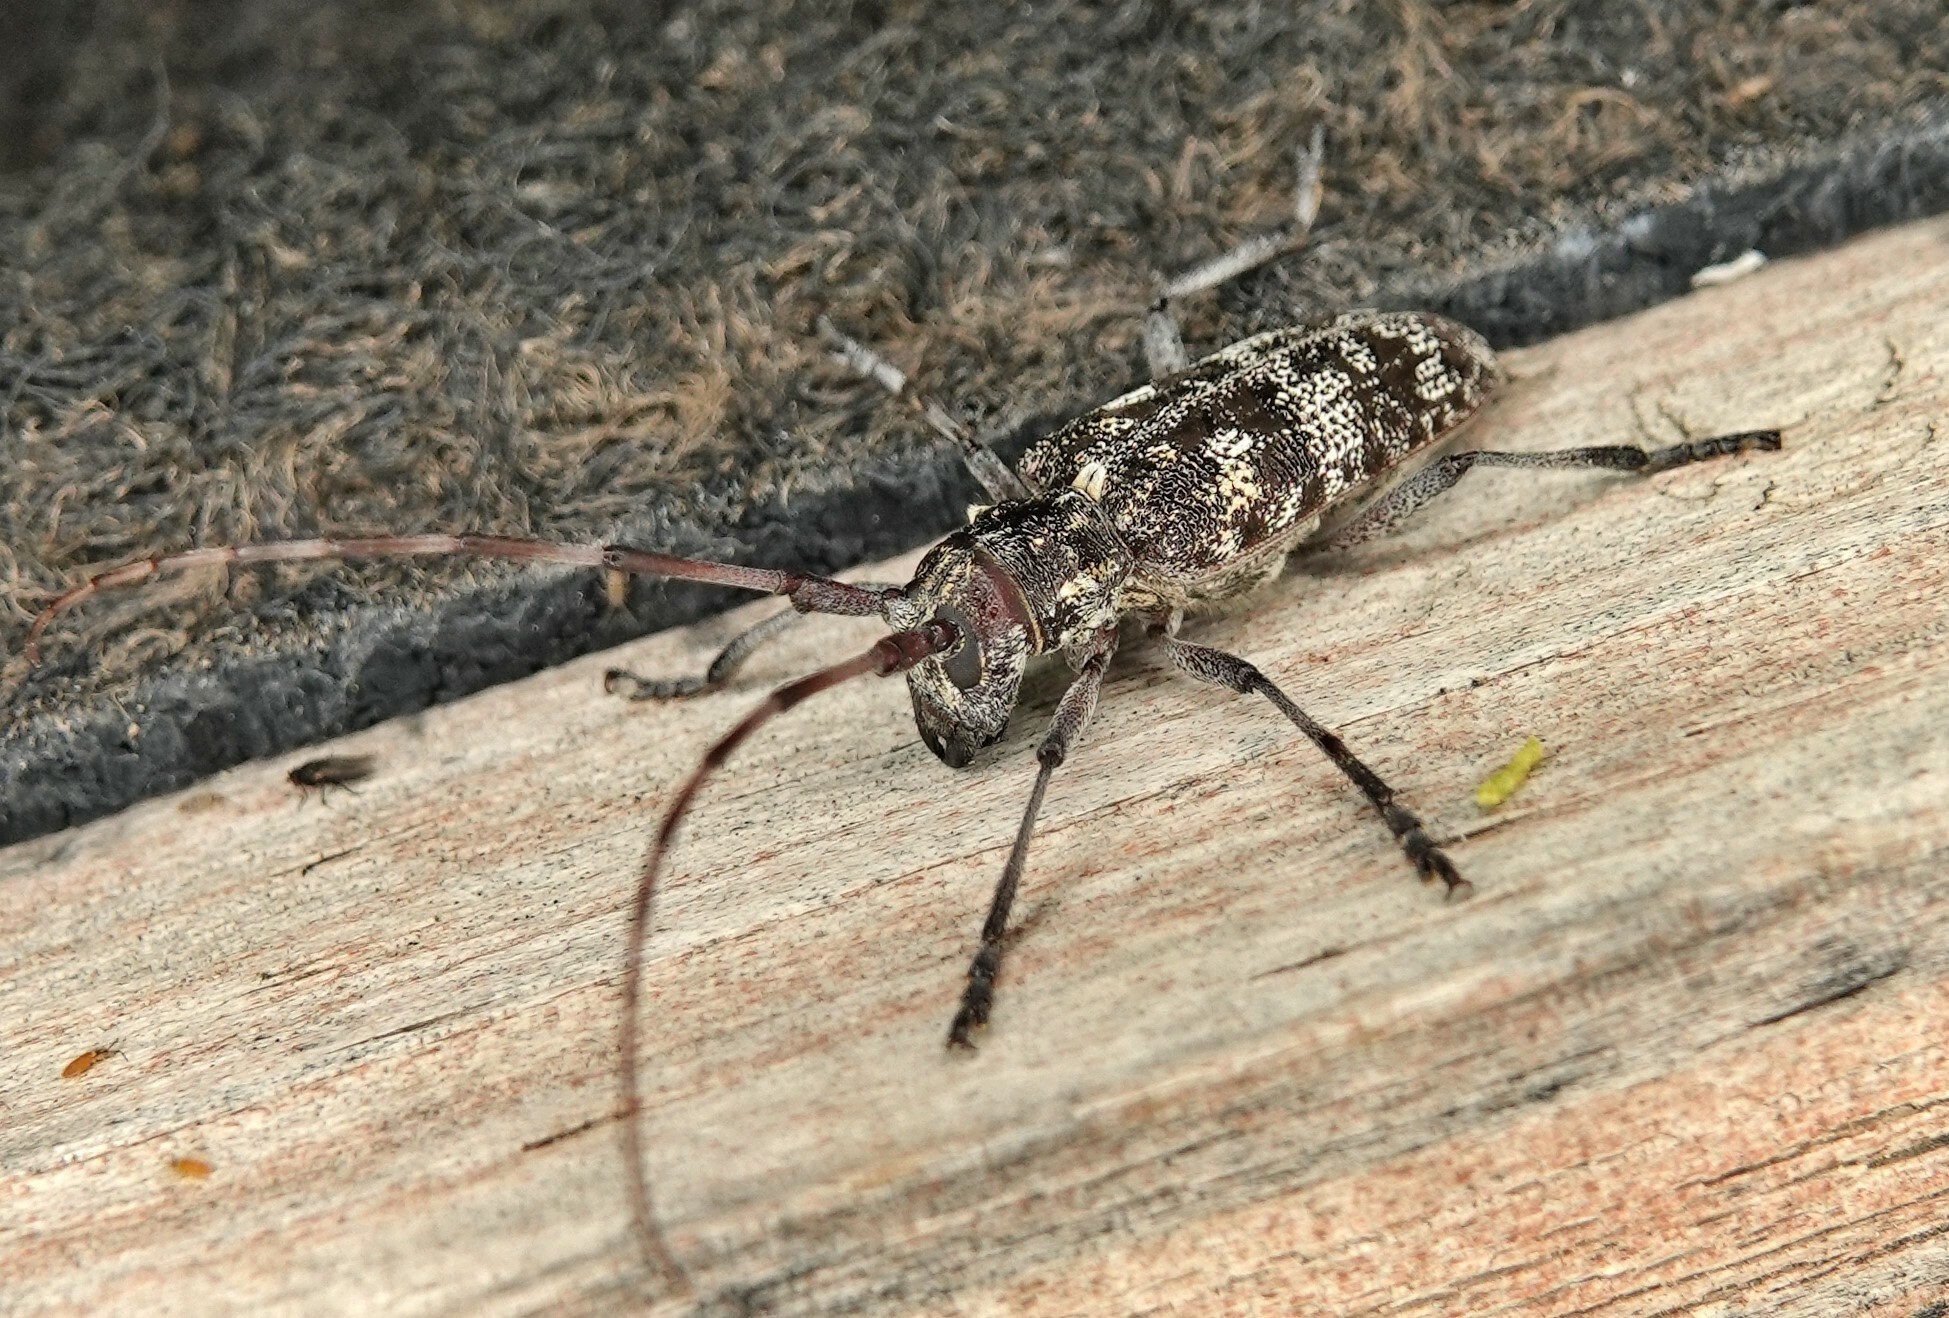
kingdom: Animalia
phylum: Arthropoda
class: Insecta
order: Coleoptera
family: Cerambycidae
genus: Monochamus
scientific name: Monochamus clamator
